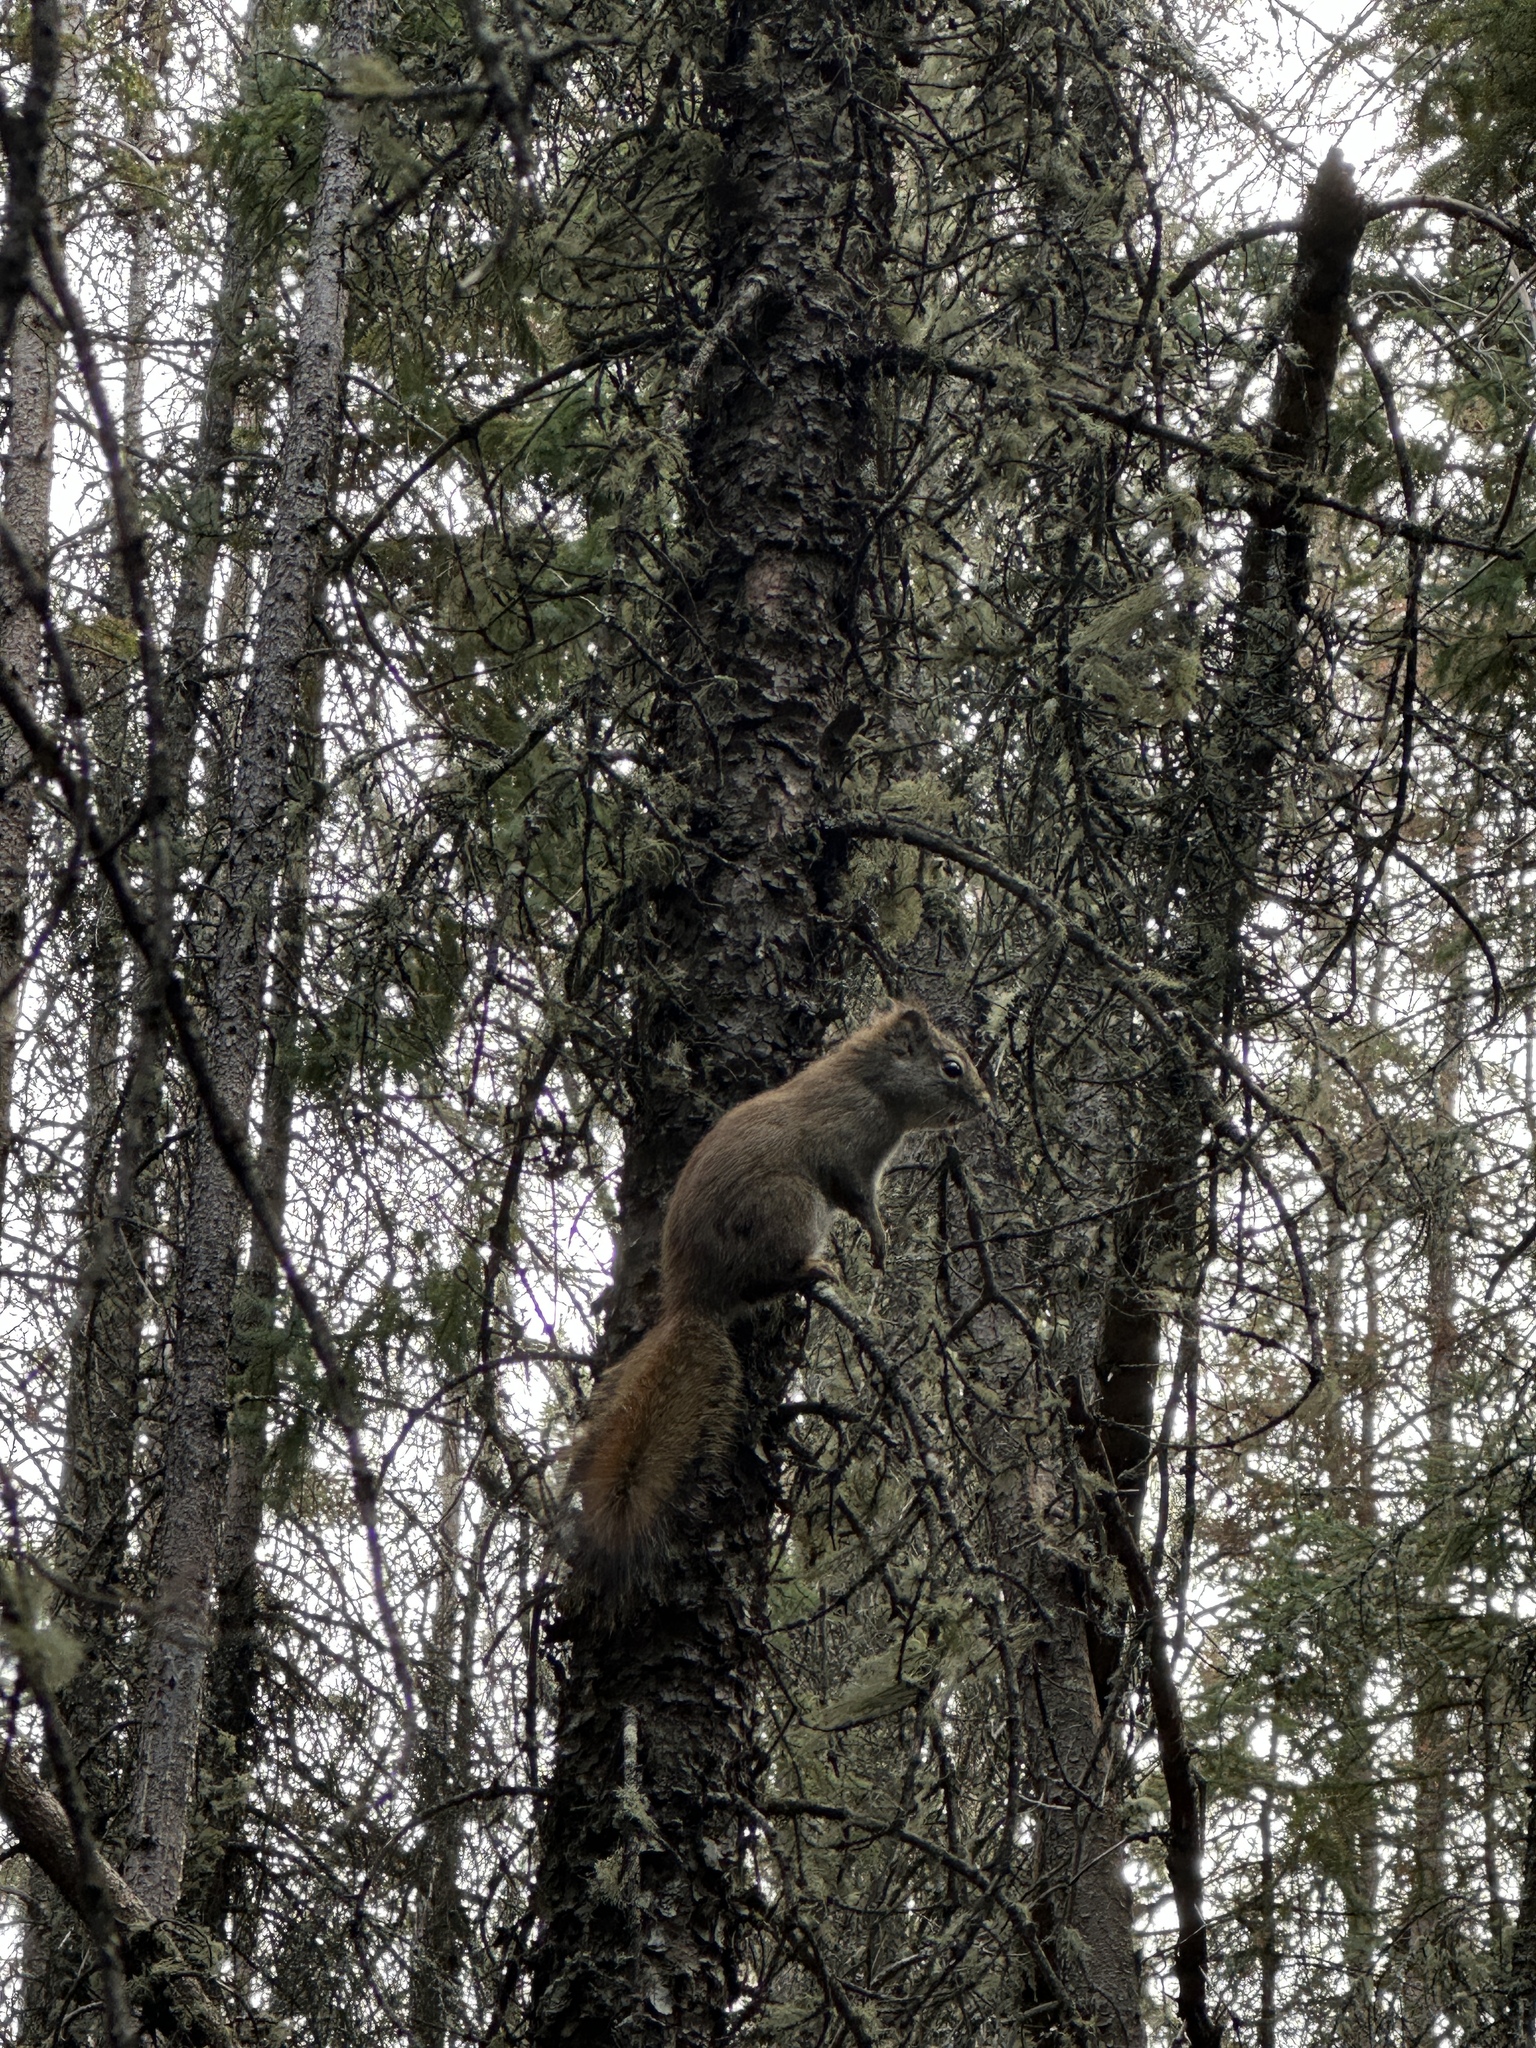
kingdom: Animalia
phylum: Chordata
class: Mammalia
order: Rodentia
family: Sciuridae
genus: Tamiasciurus
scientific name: Tamiasciurus hudsonicus
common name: Red squirrel
